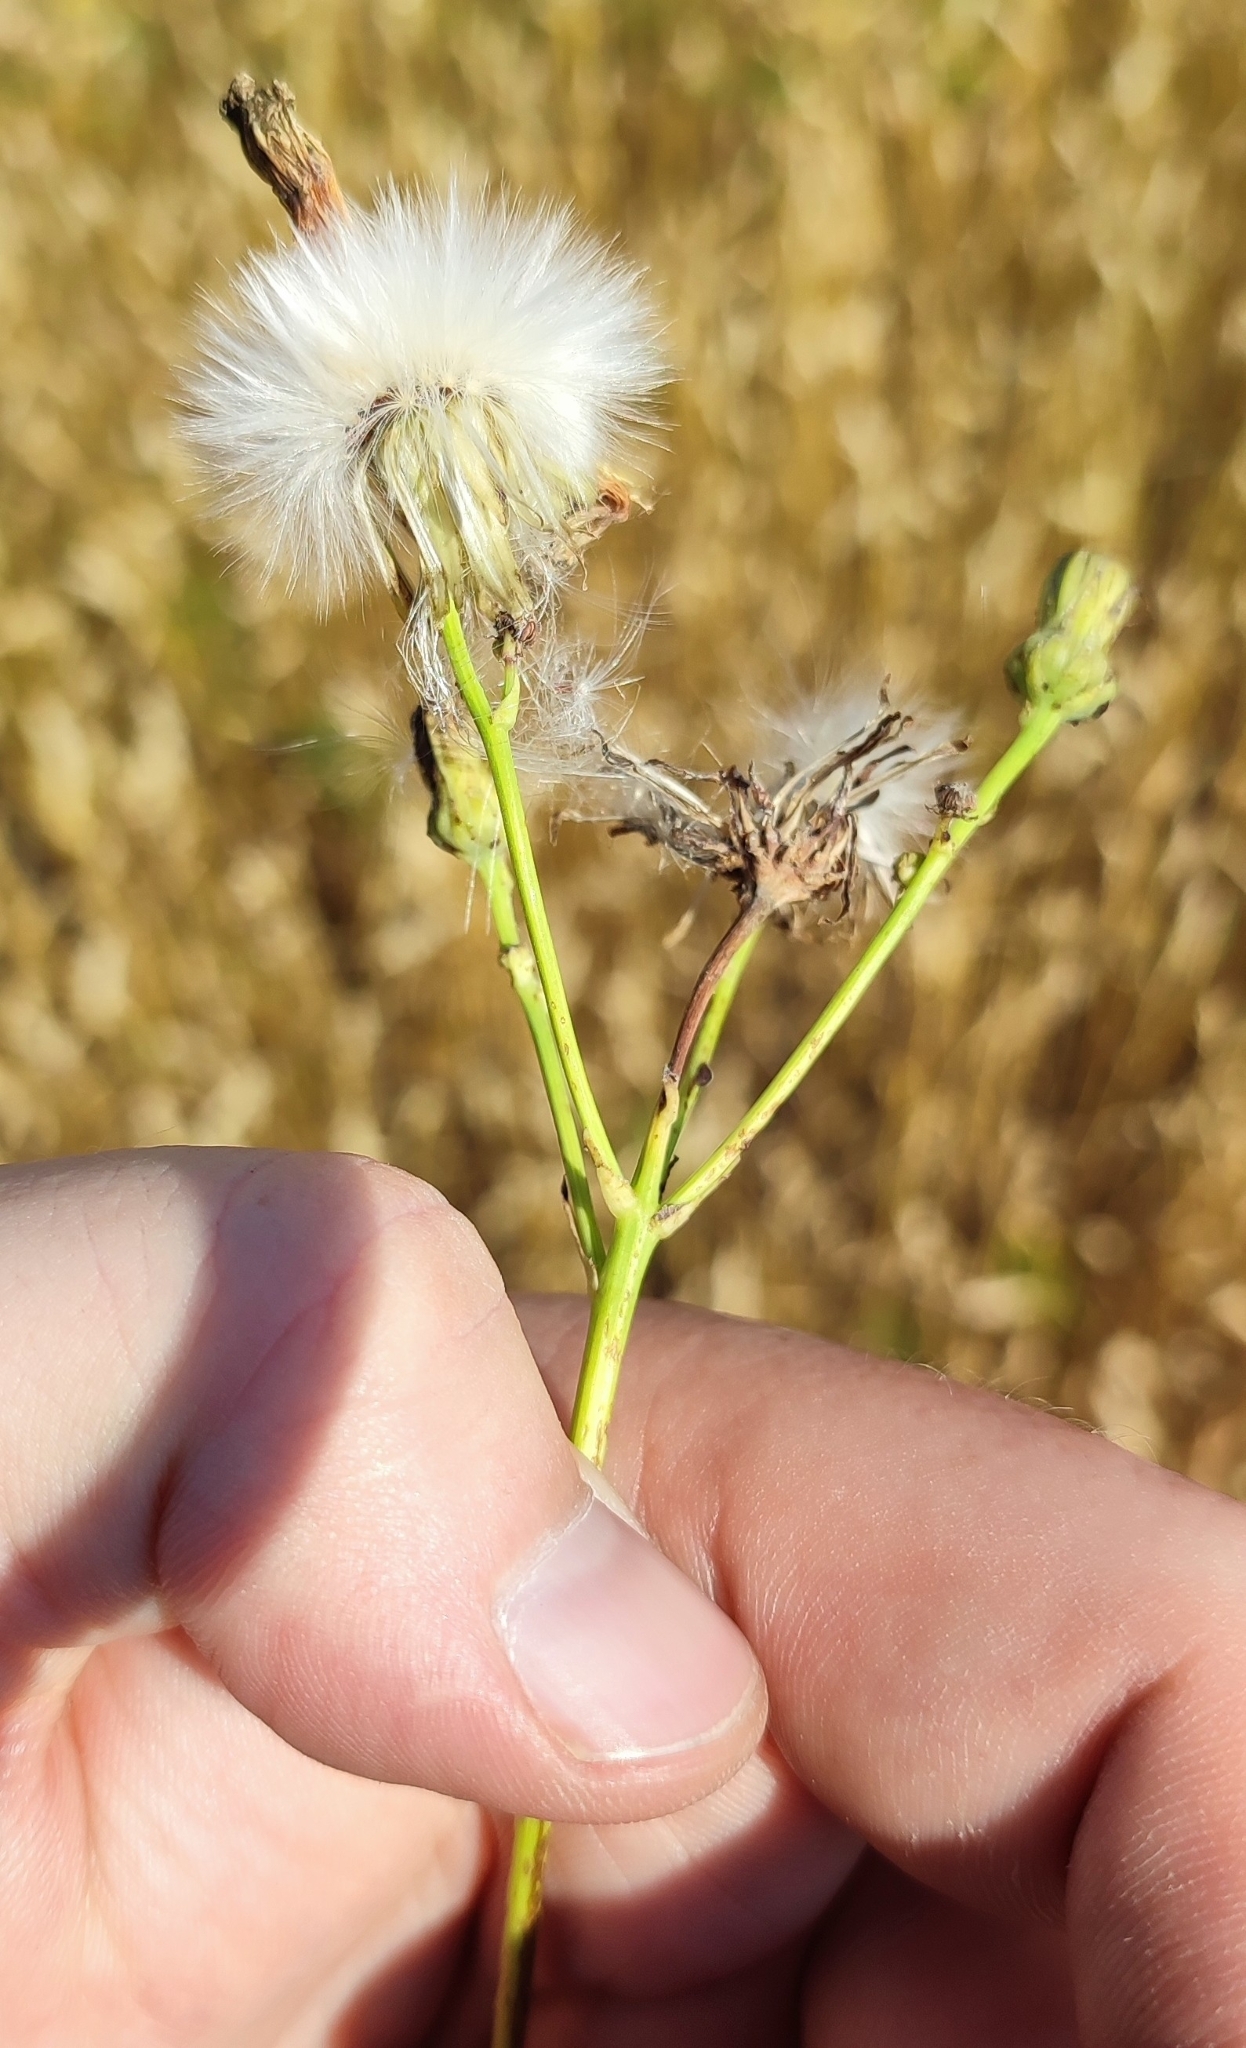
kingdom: Plantae
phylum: Tracheophyta
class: Magnoliopsida
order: Asterales
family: Asteraceae
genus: Sonchus
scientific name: Sonchus arvensis
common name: Perennial sow-thistle
